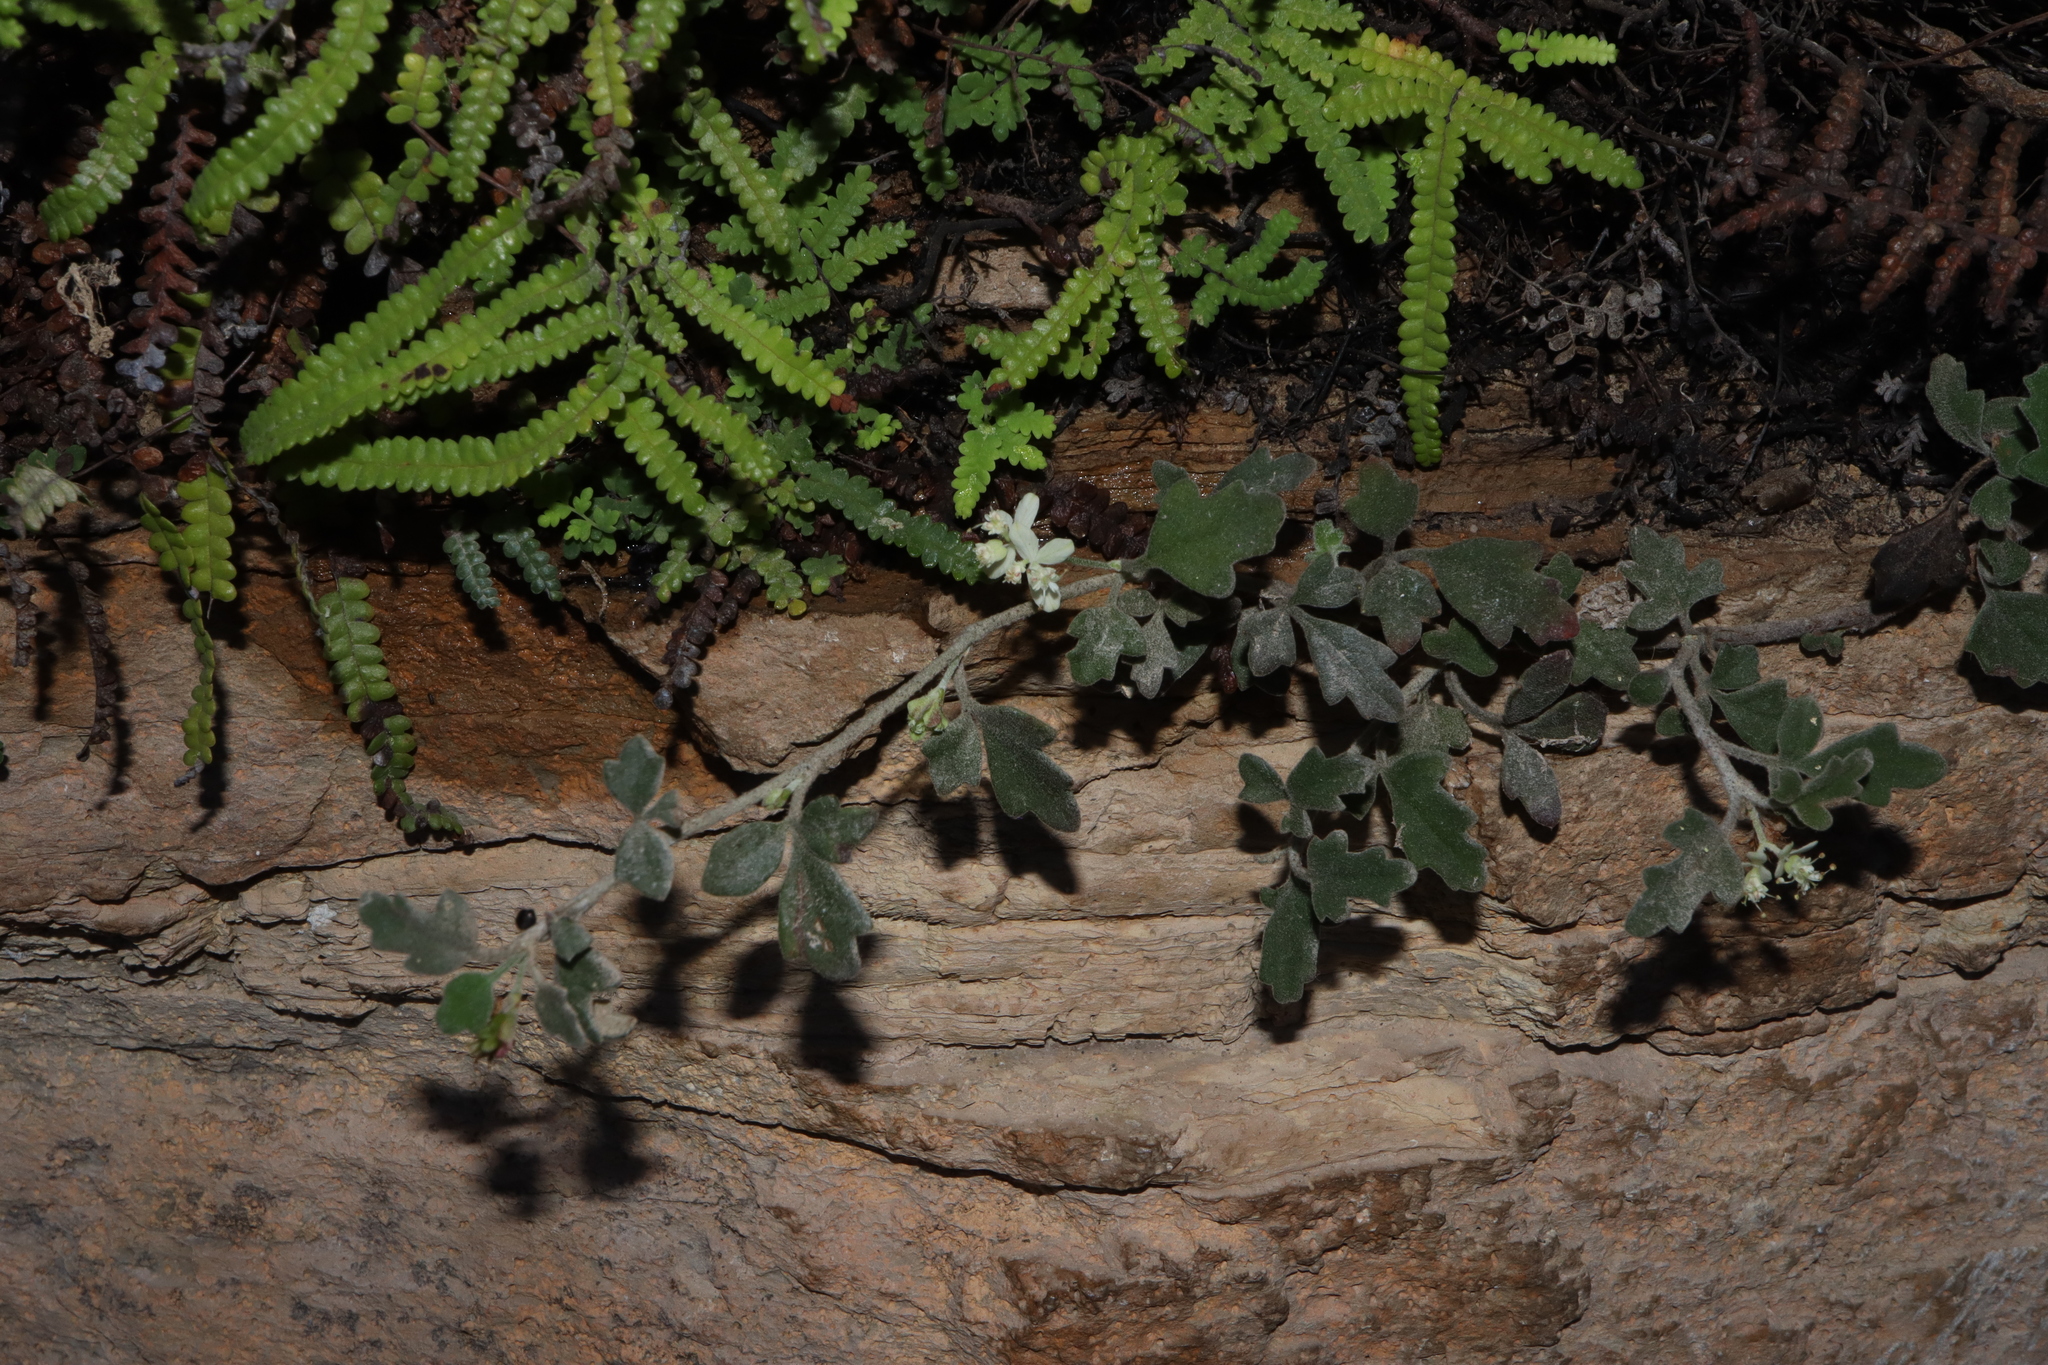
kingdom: Plantae
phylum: Tracheophyta
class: Magnoliopsida
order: Apiales
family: Apiaceae
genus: Xanthosia
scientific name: Xanthosia scopulicola
